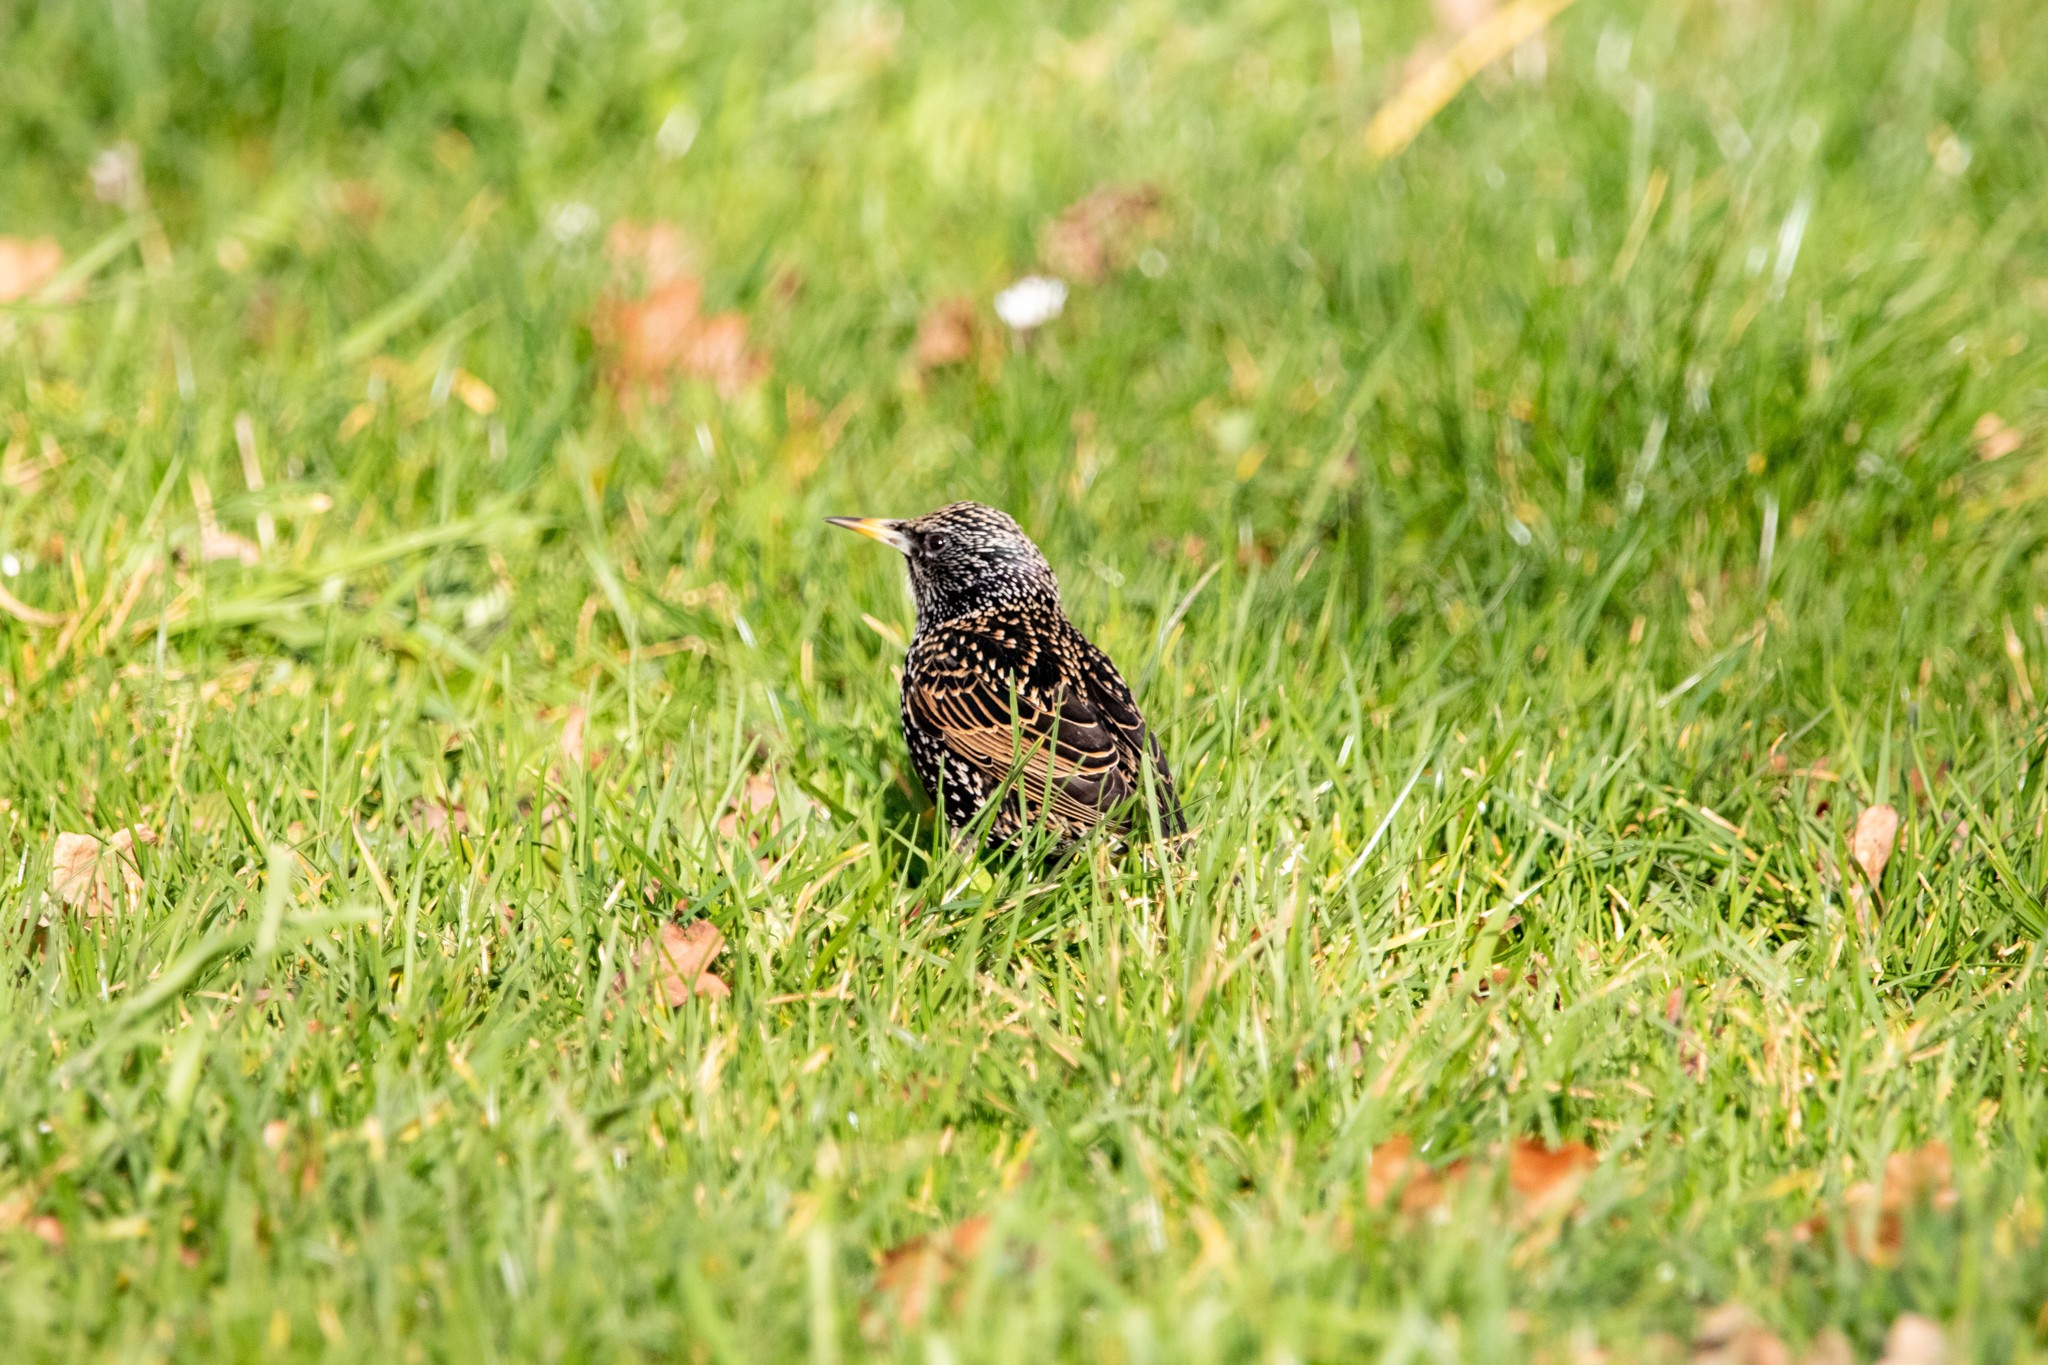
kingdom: Animalia
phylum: Chordata
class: Aves
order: Passeriformes
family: Sturnidae
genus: Sturnus
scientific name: Sturnus vulgaris
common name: Common starling
